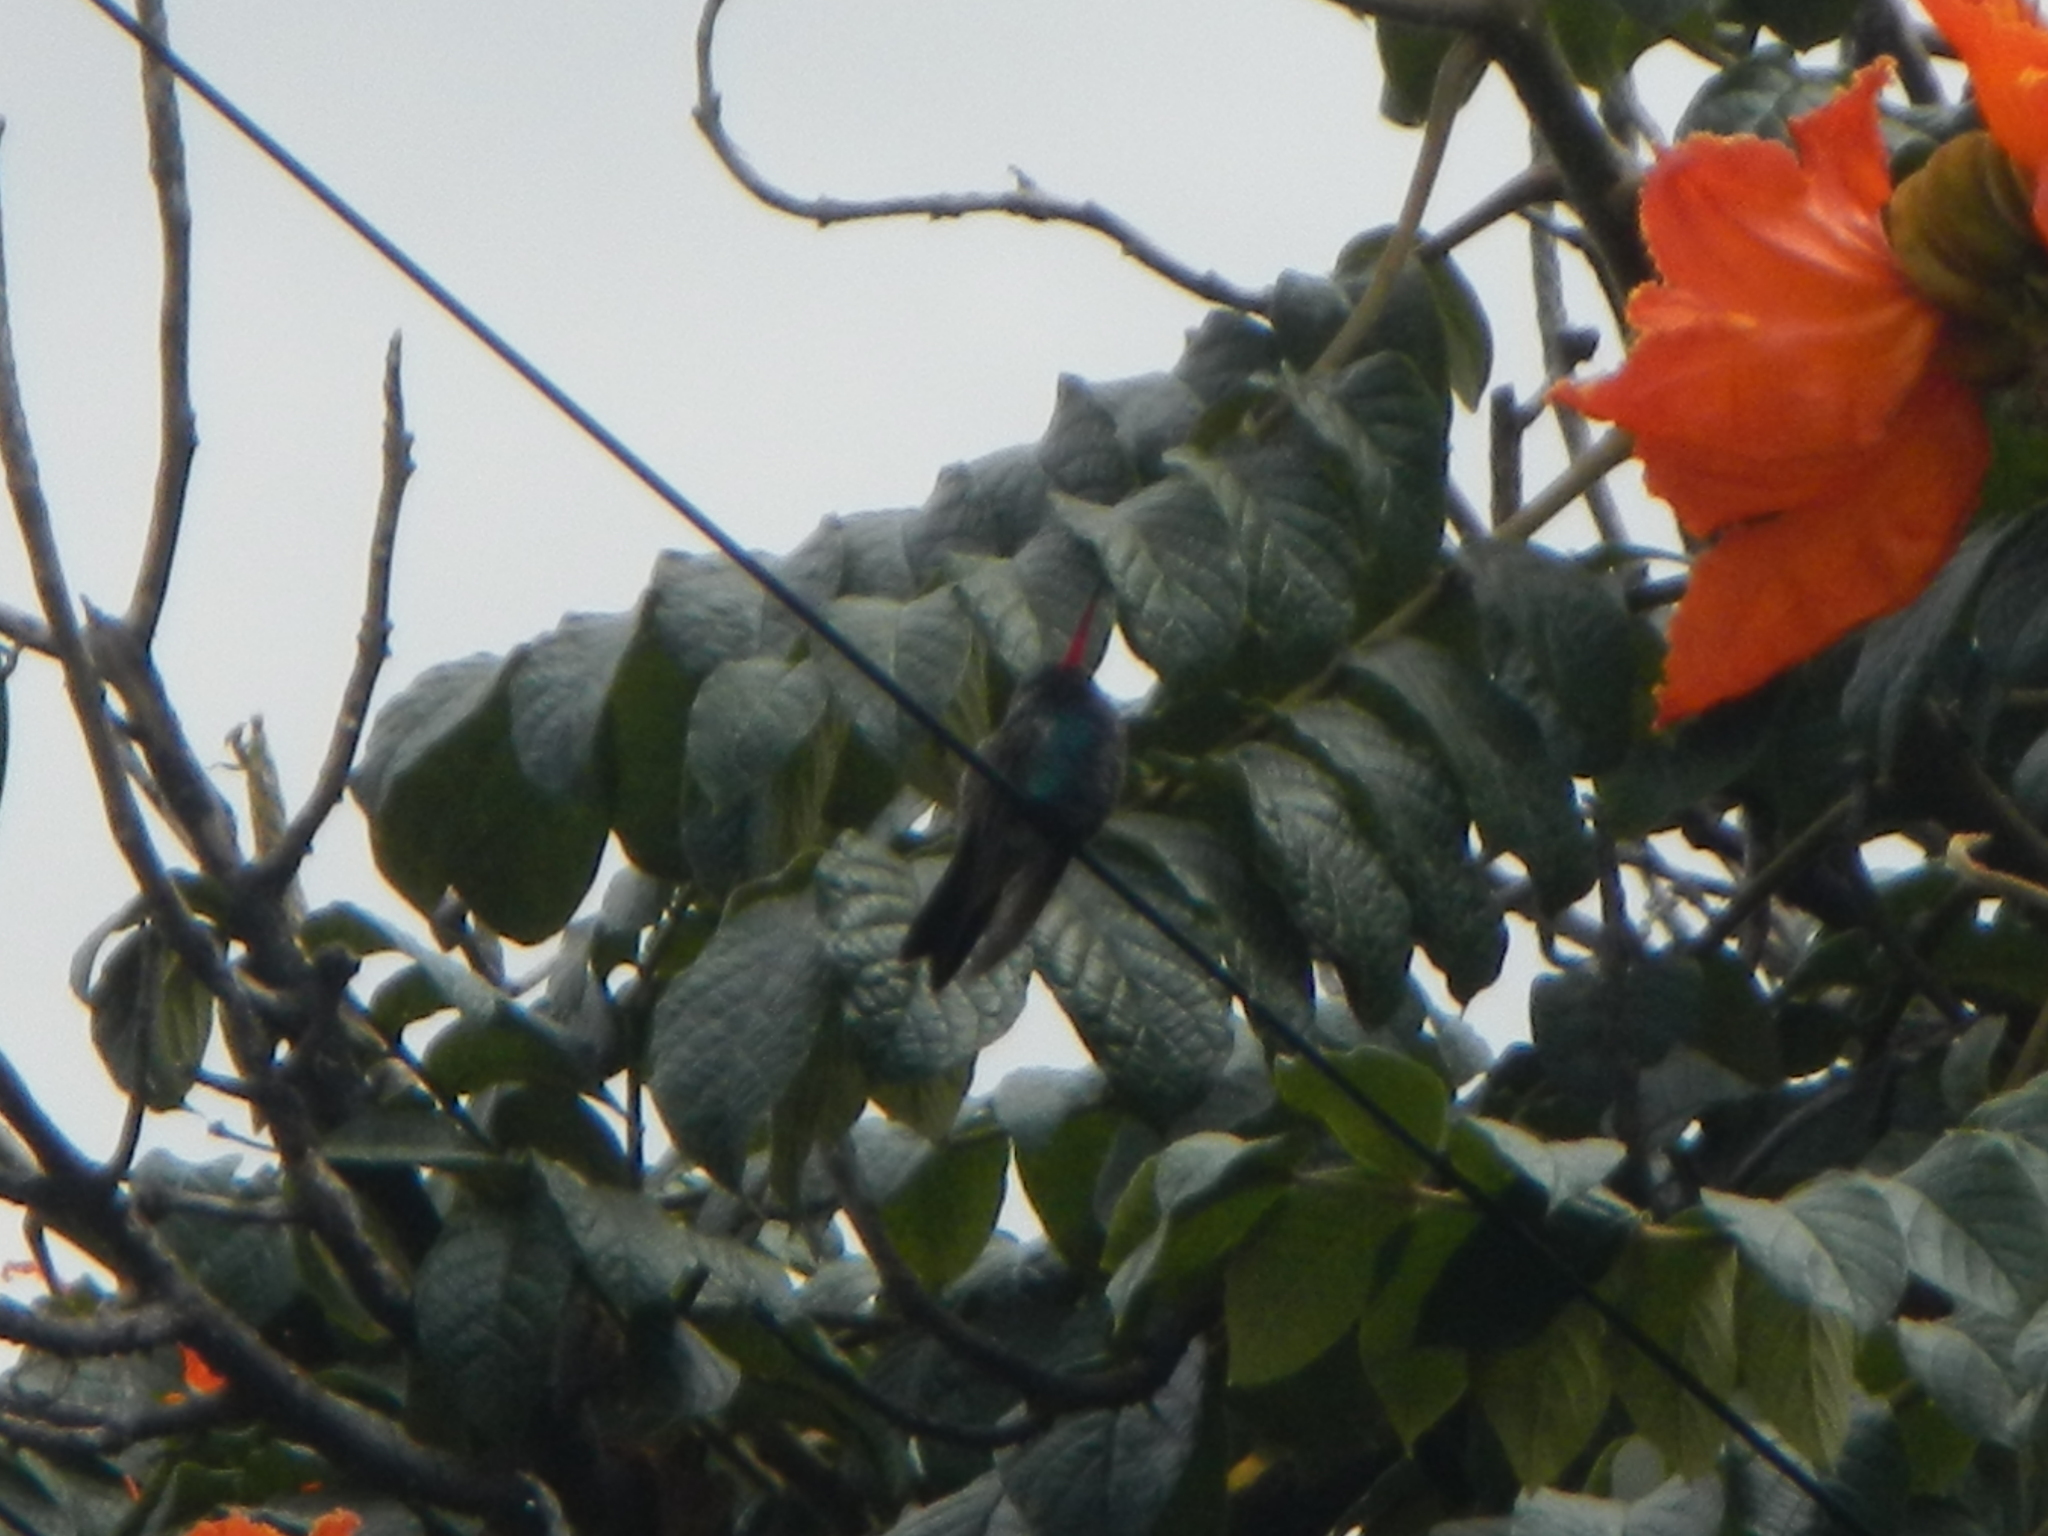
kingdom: Animalia
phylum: Chordata
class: Aves
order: Apodiformes
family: Trochilidae
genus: Cynanthus
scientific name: Cynanthus latirostris
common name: Broad-billed hummingbird
